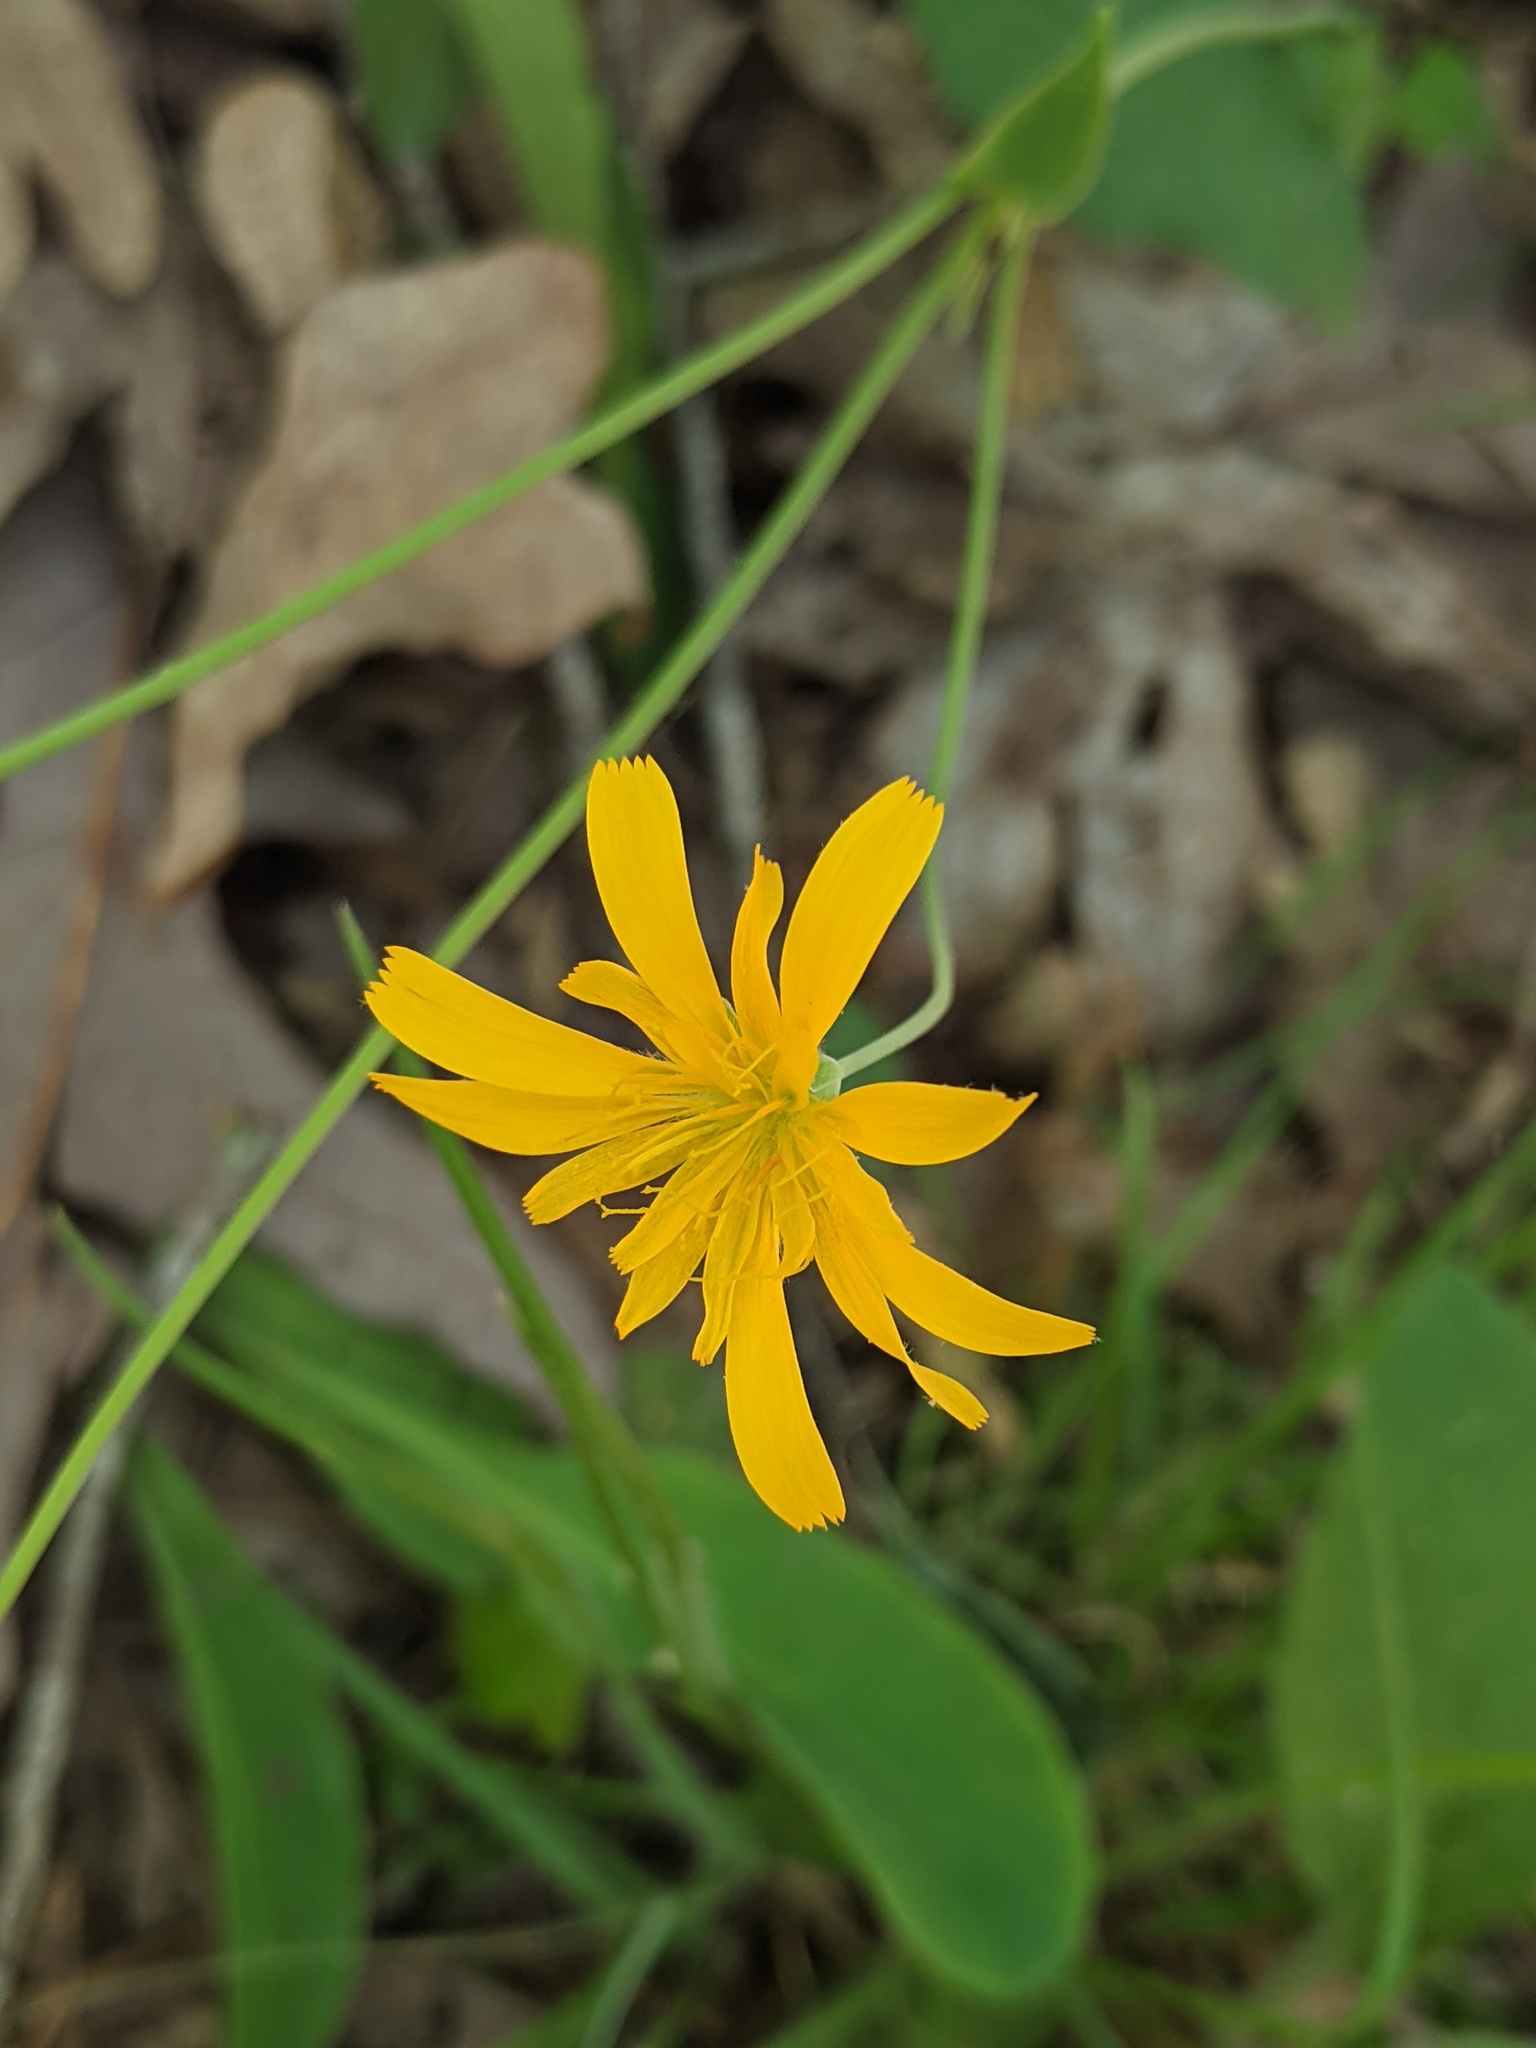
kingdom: Plantae
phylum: Tracheophyta
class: Magnoliopsida
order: Asterales
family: Asteraceae
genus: Krigia
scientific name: Krigia biflora
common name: Orange dwarf-dandelion
